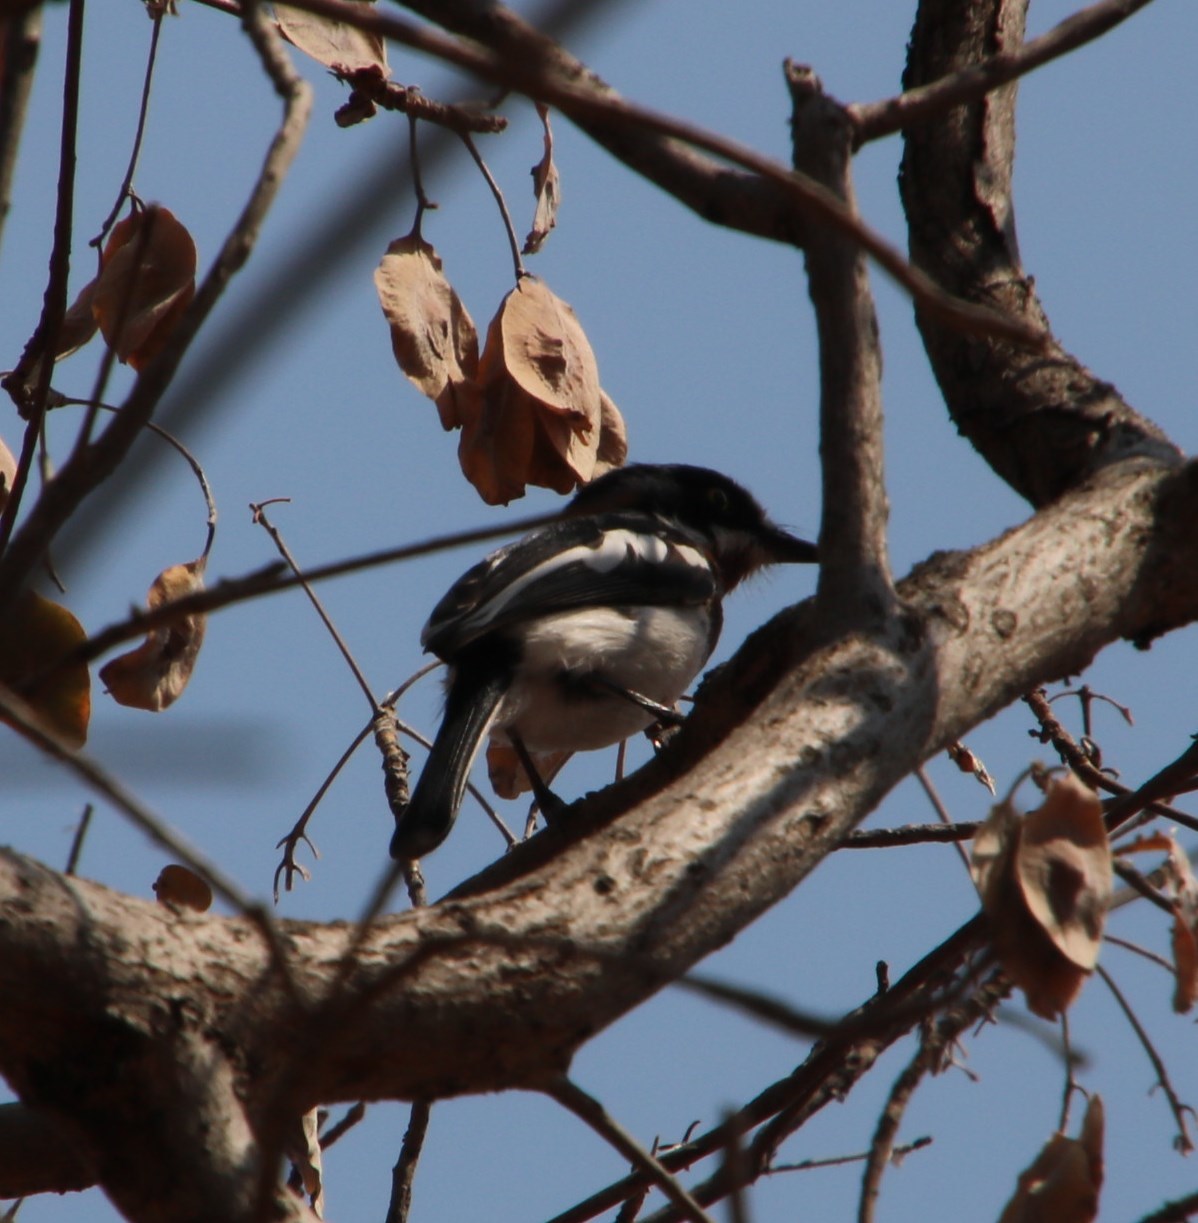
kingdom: Animalia
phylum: Chordata
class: Aves
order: Passeriformes
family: Platysteiridae
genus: Batis
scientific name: Batis molitor
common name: Chinspot batis
